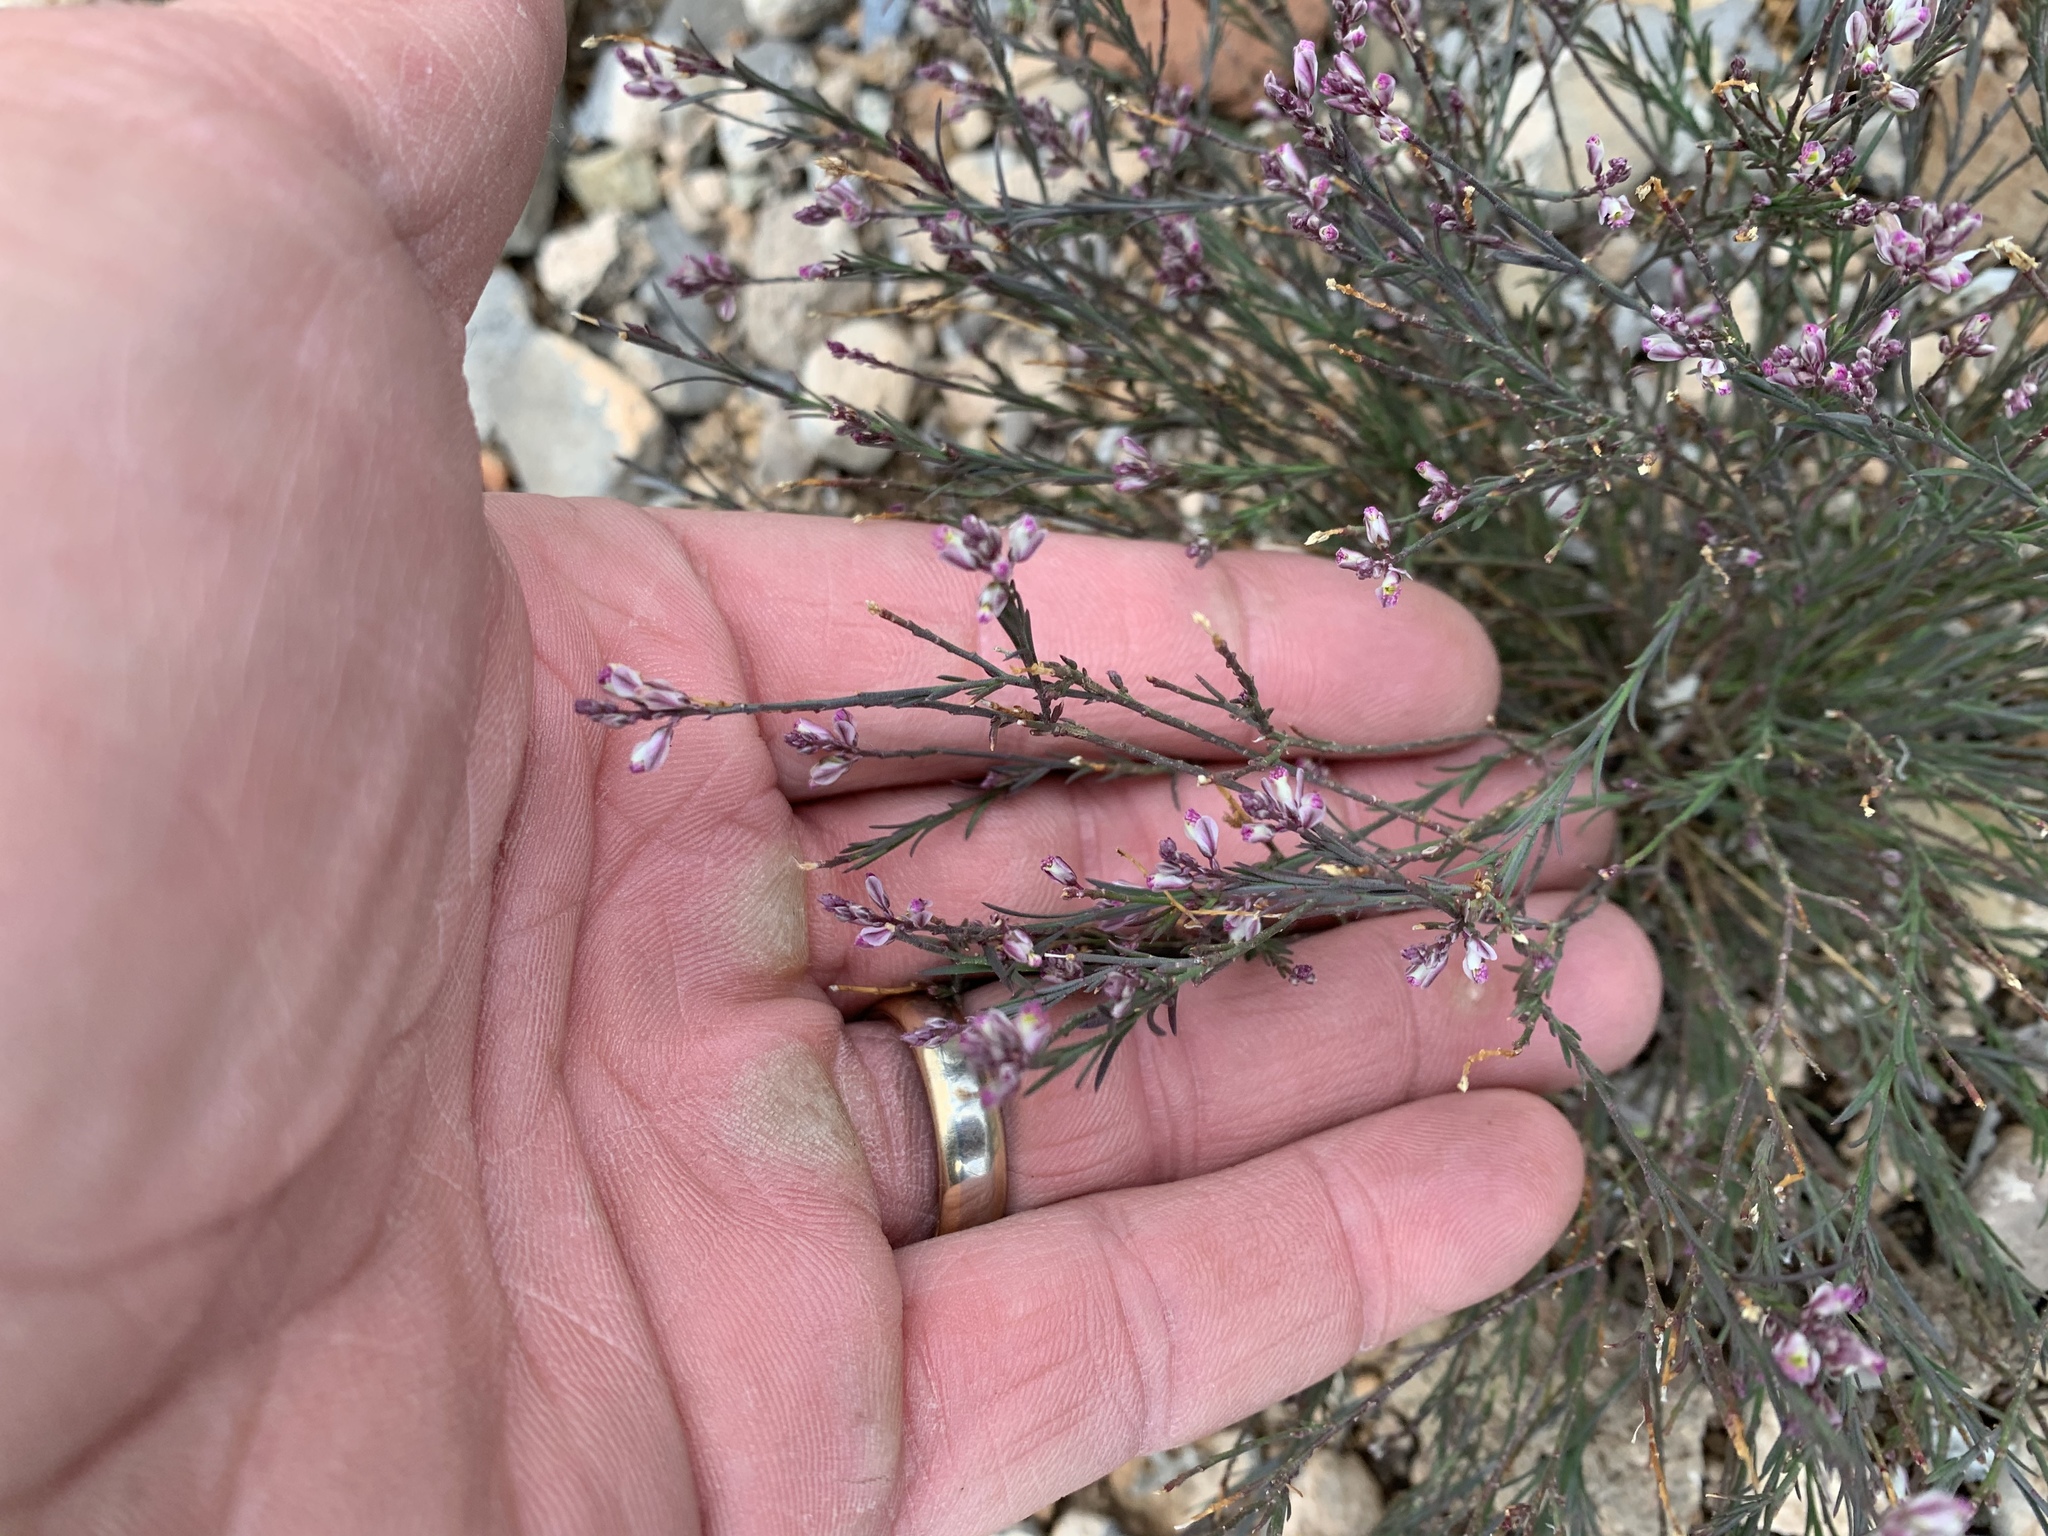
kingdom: Plantae
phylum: Tracheophyta
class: Magnoliopsida
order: Fabales
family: Polygalaceae
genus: Polygala
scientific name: Polygala scoparioides
